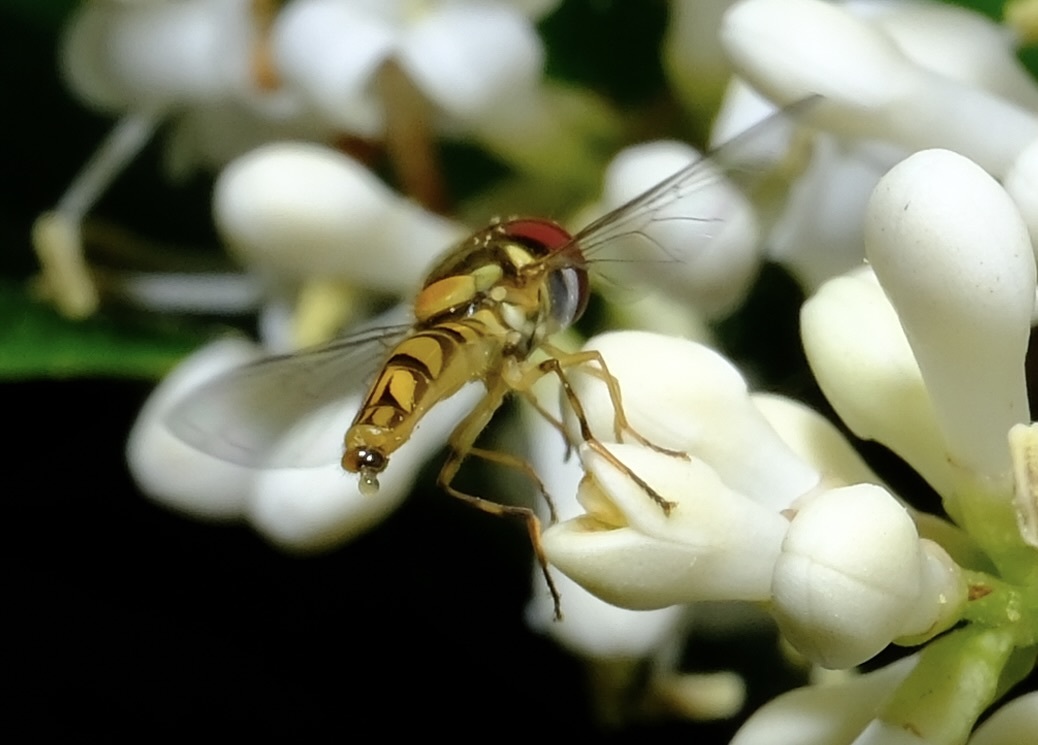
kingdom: Animalia
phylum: Arthropoda
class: Insecta
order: Diptera
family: Syrphidae
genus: Allograpta
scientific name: Allograpta obliqua
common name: Common oblique syrphid
